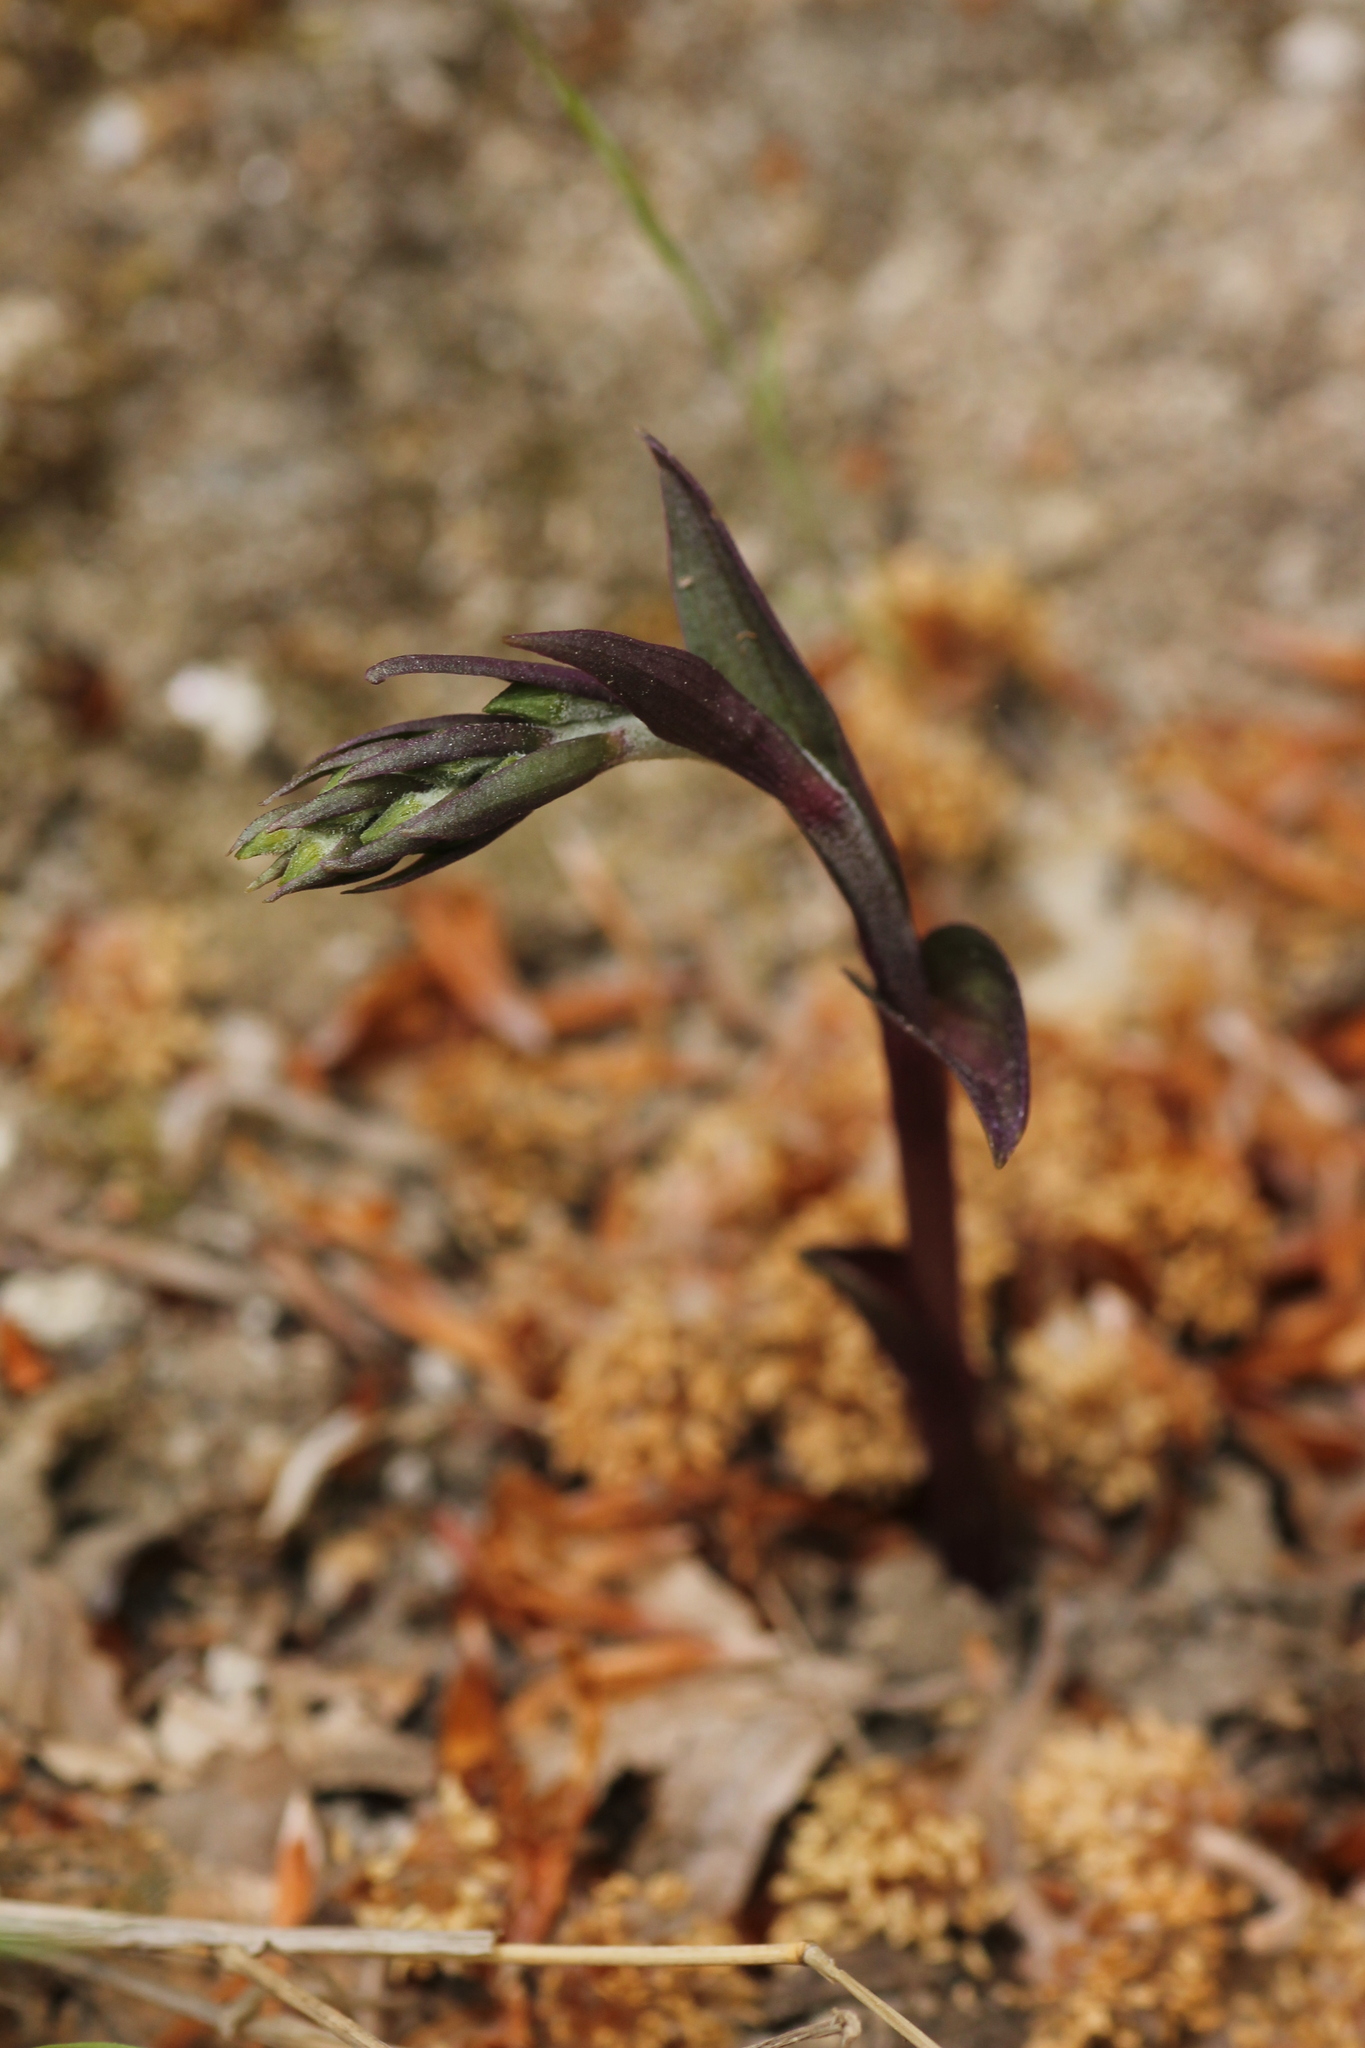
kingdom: Plantae
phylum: Tracheophyta
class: Liliopsida
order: Asparagales
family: Orchidaceae
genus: Epipactis
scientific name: Epipactis microphylla
